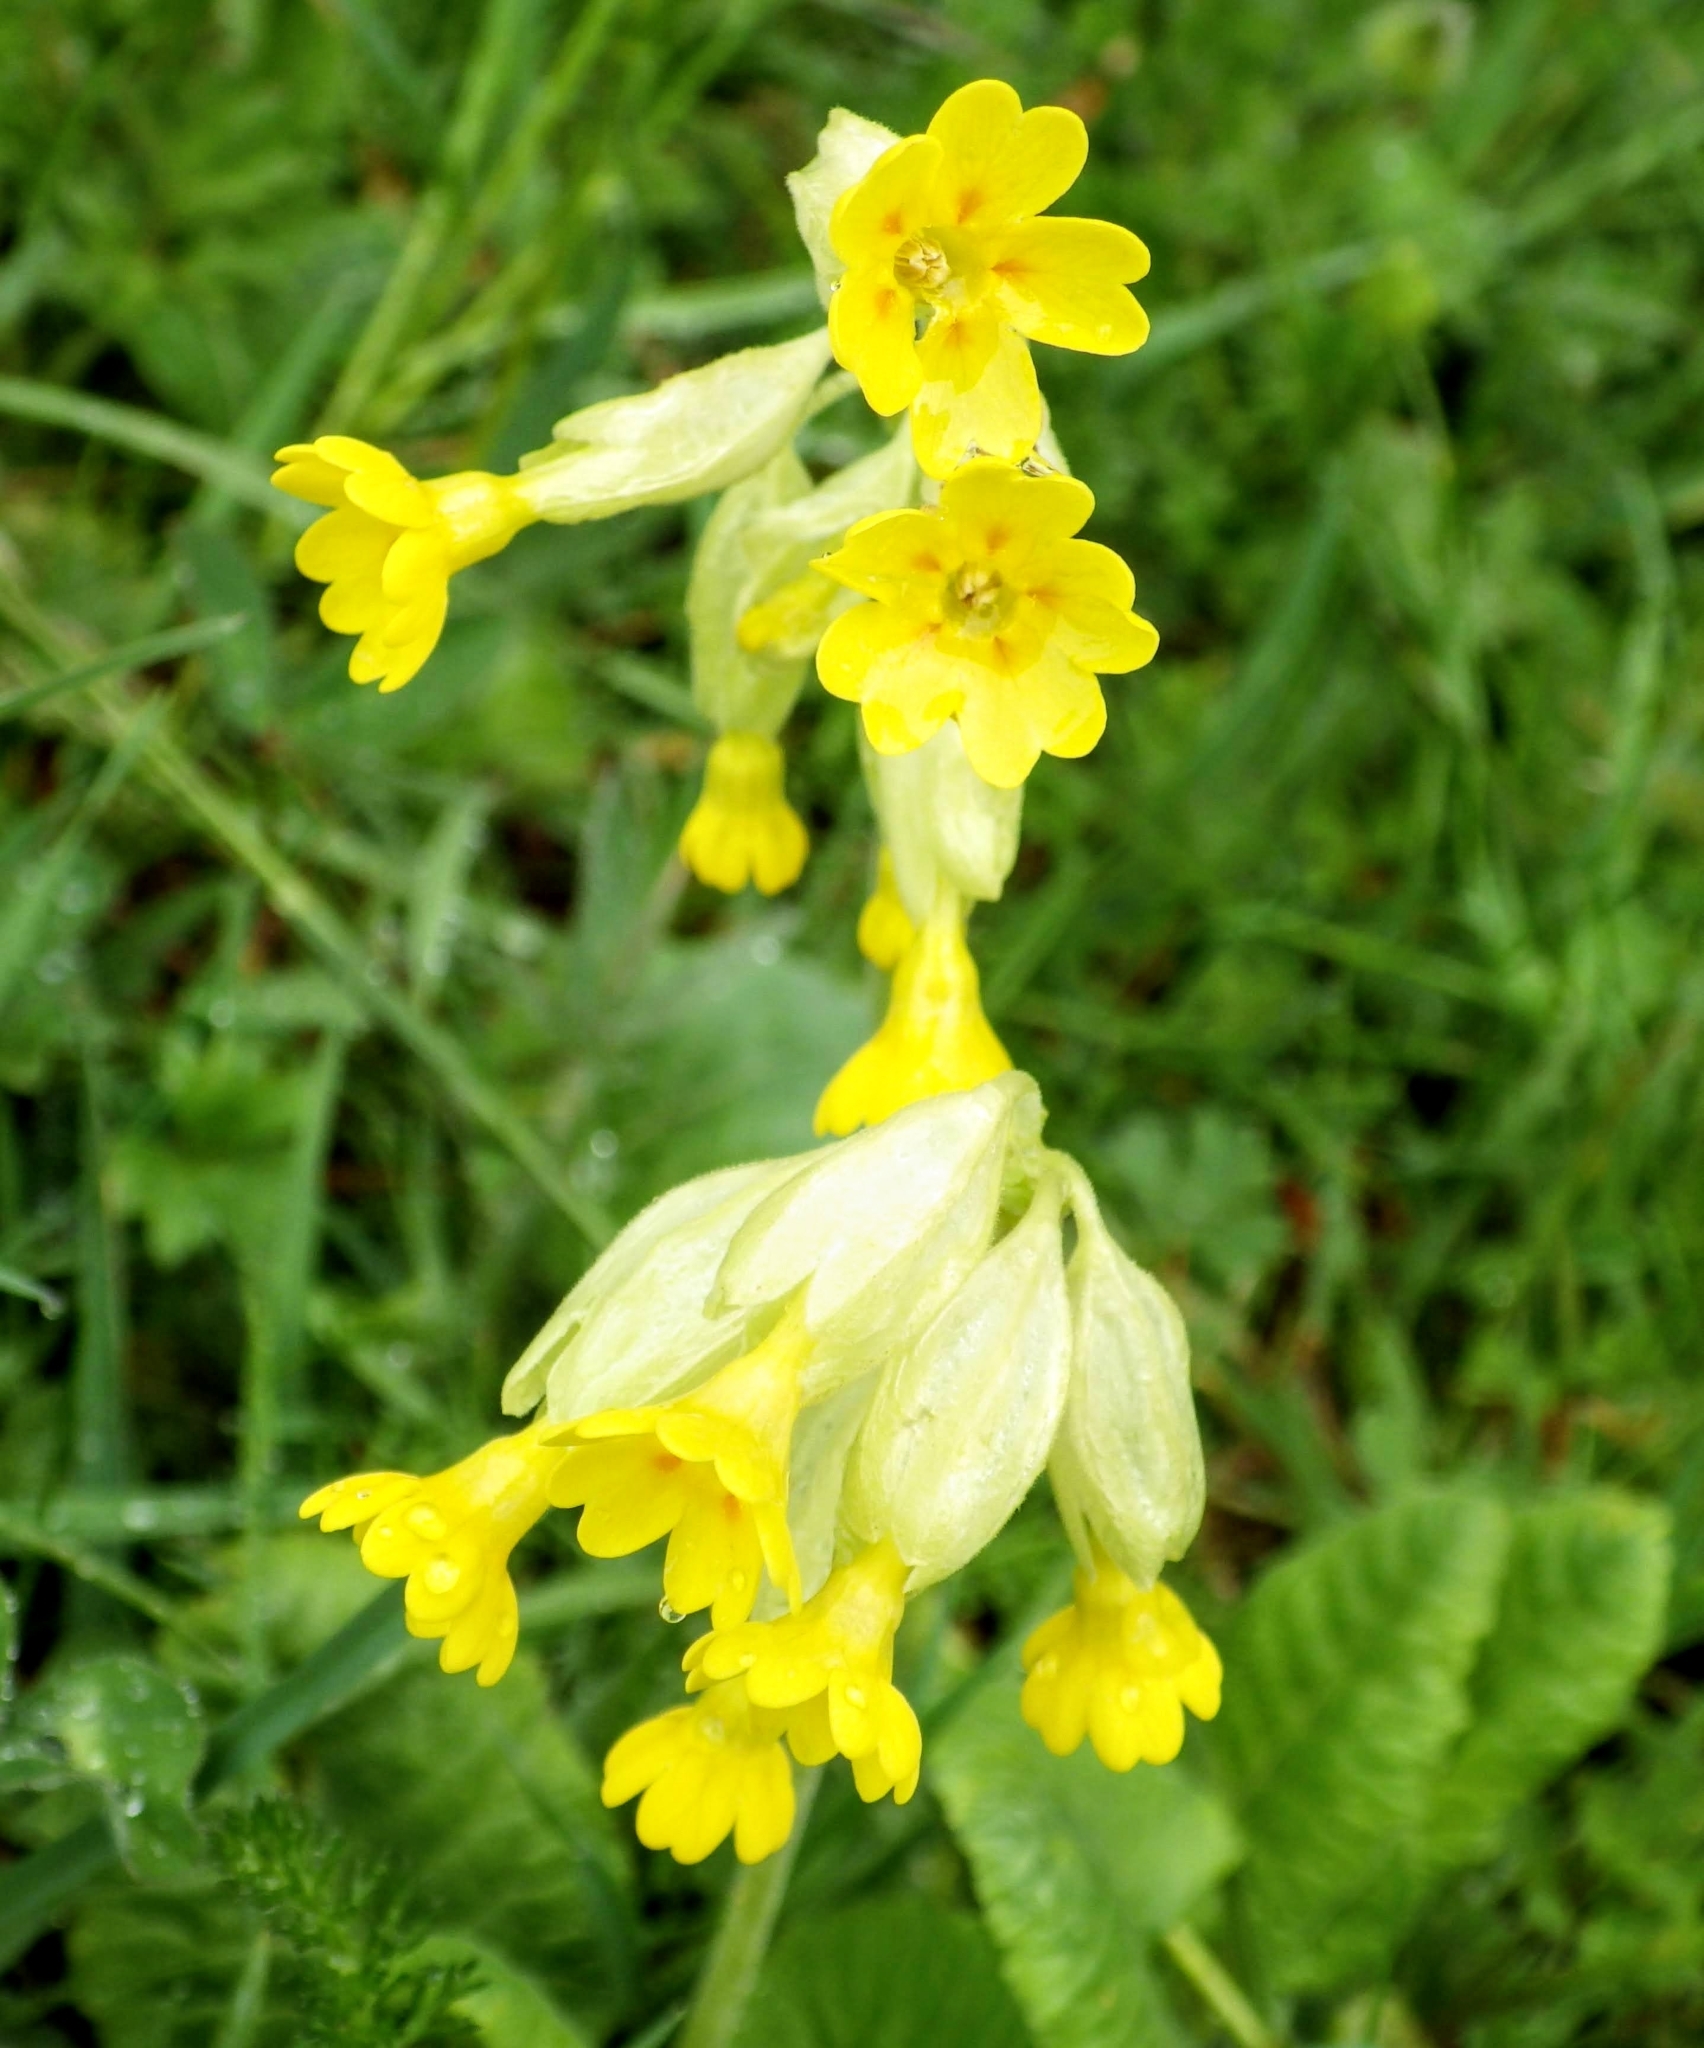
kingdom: Plantae
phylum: Tracheophyta
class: Magnoliopsida
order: Ericales
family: Primulaceae
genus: Primula
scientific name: Primula veris
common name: Cowslip
